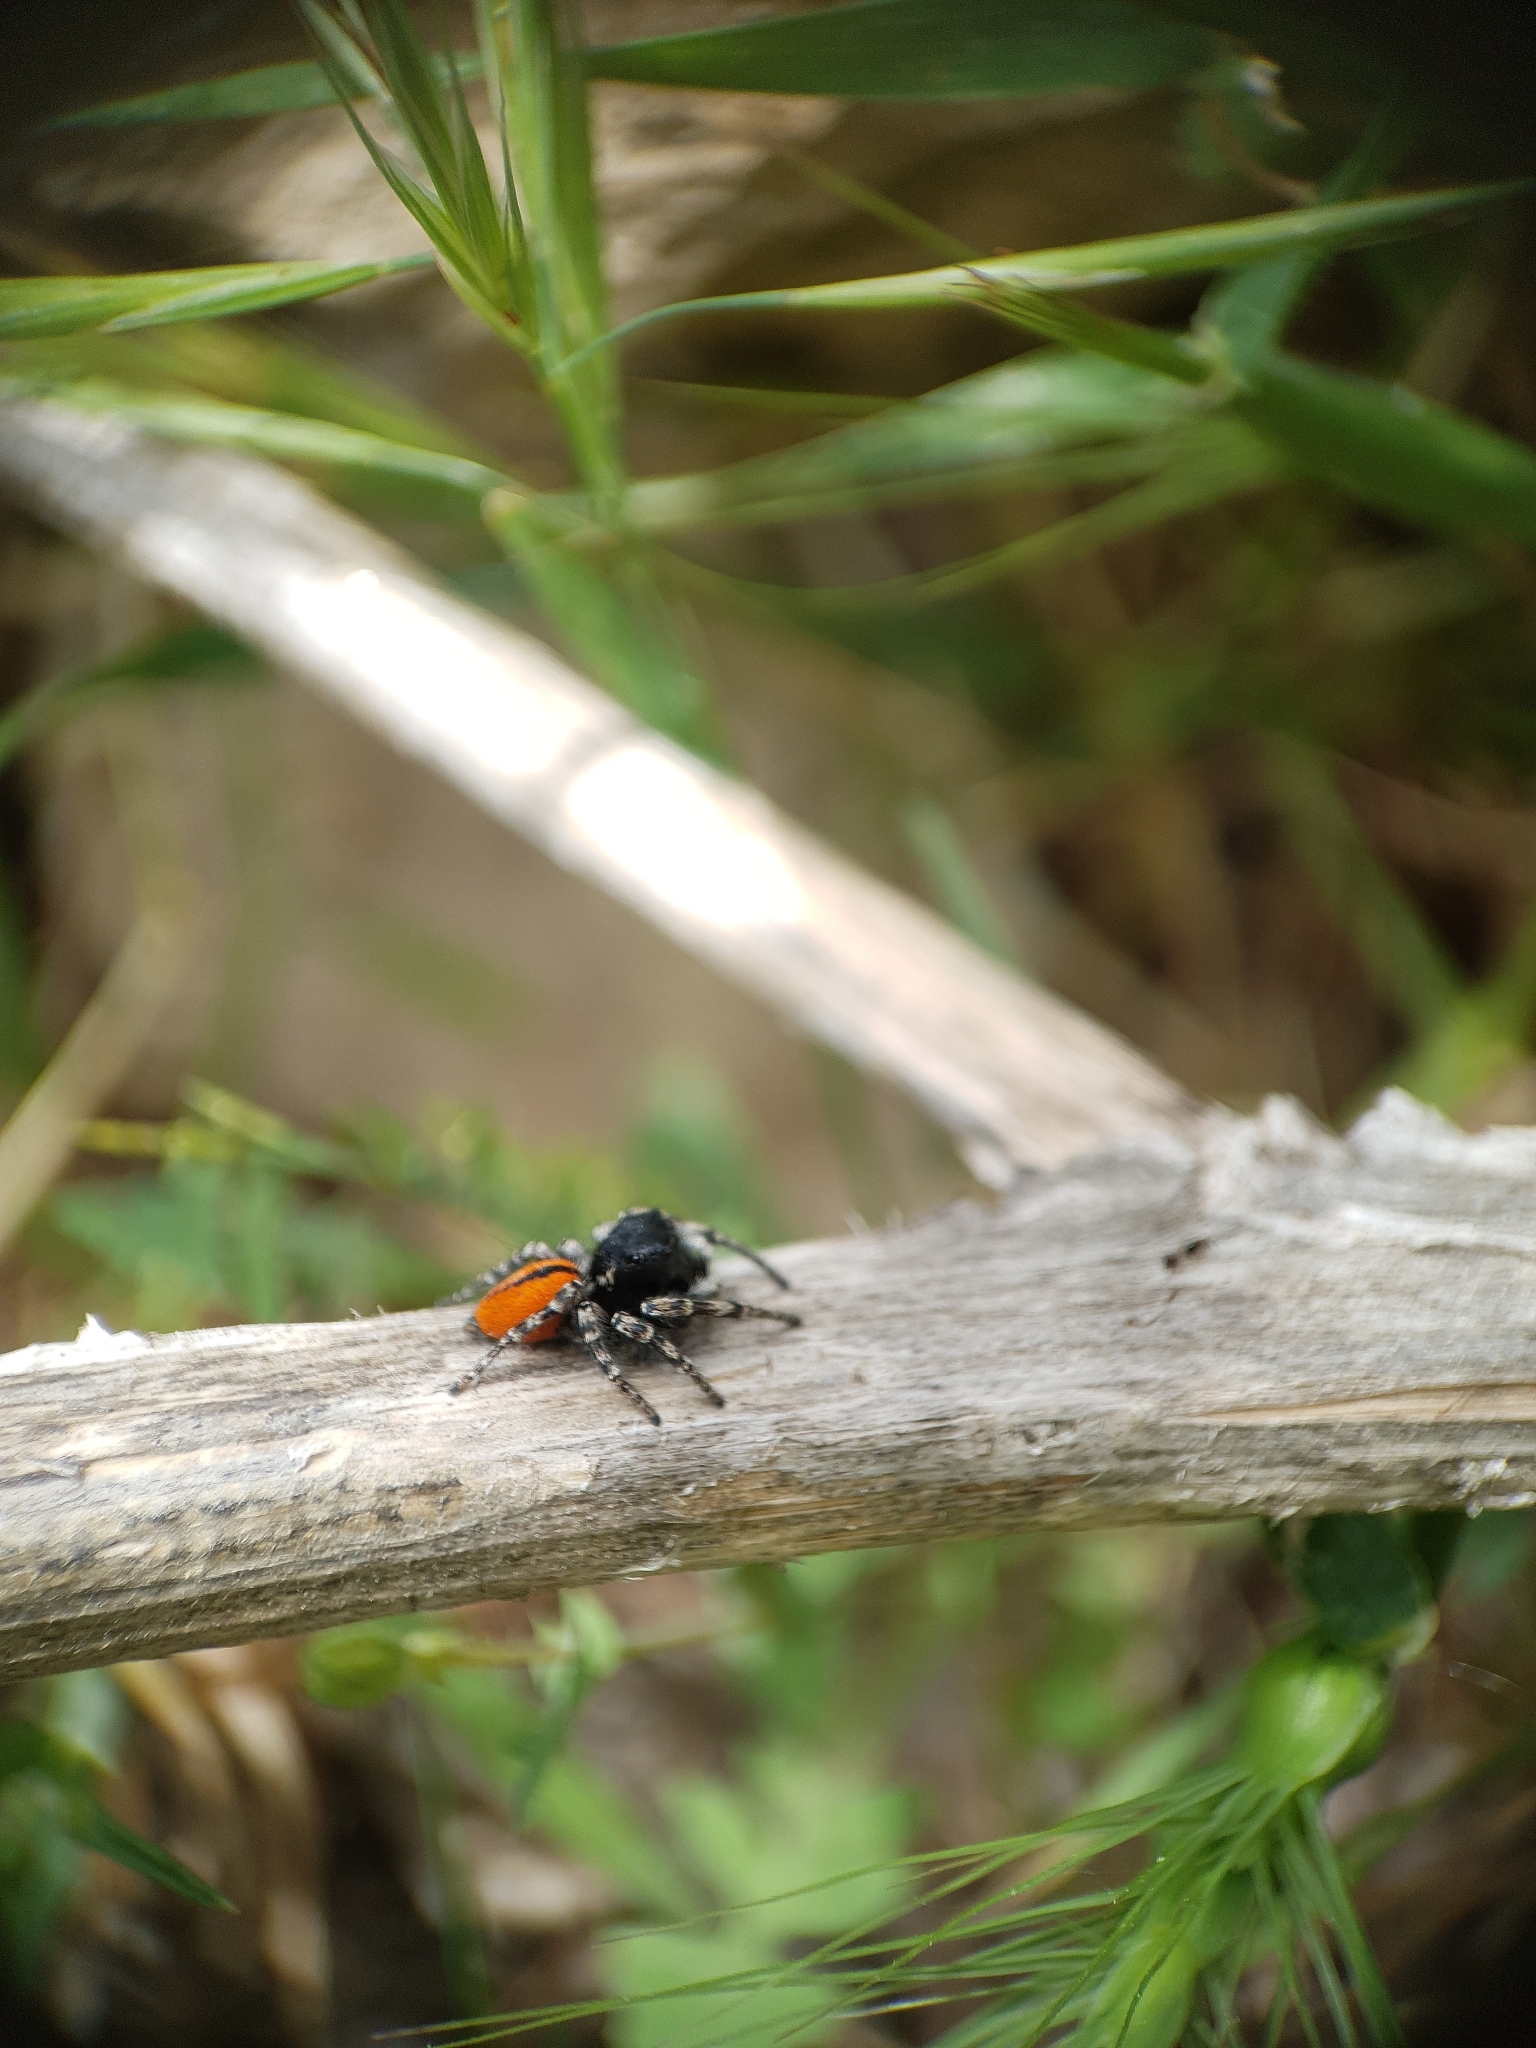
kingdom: Animalia
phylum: Arthropoda
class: Arachnida
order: Araneae
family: Salticidae
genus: Philaeus
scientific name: Philaeus chrysops
